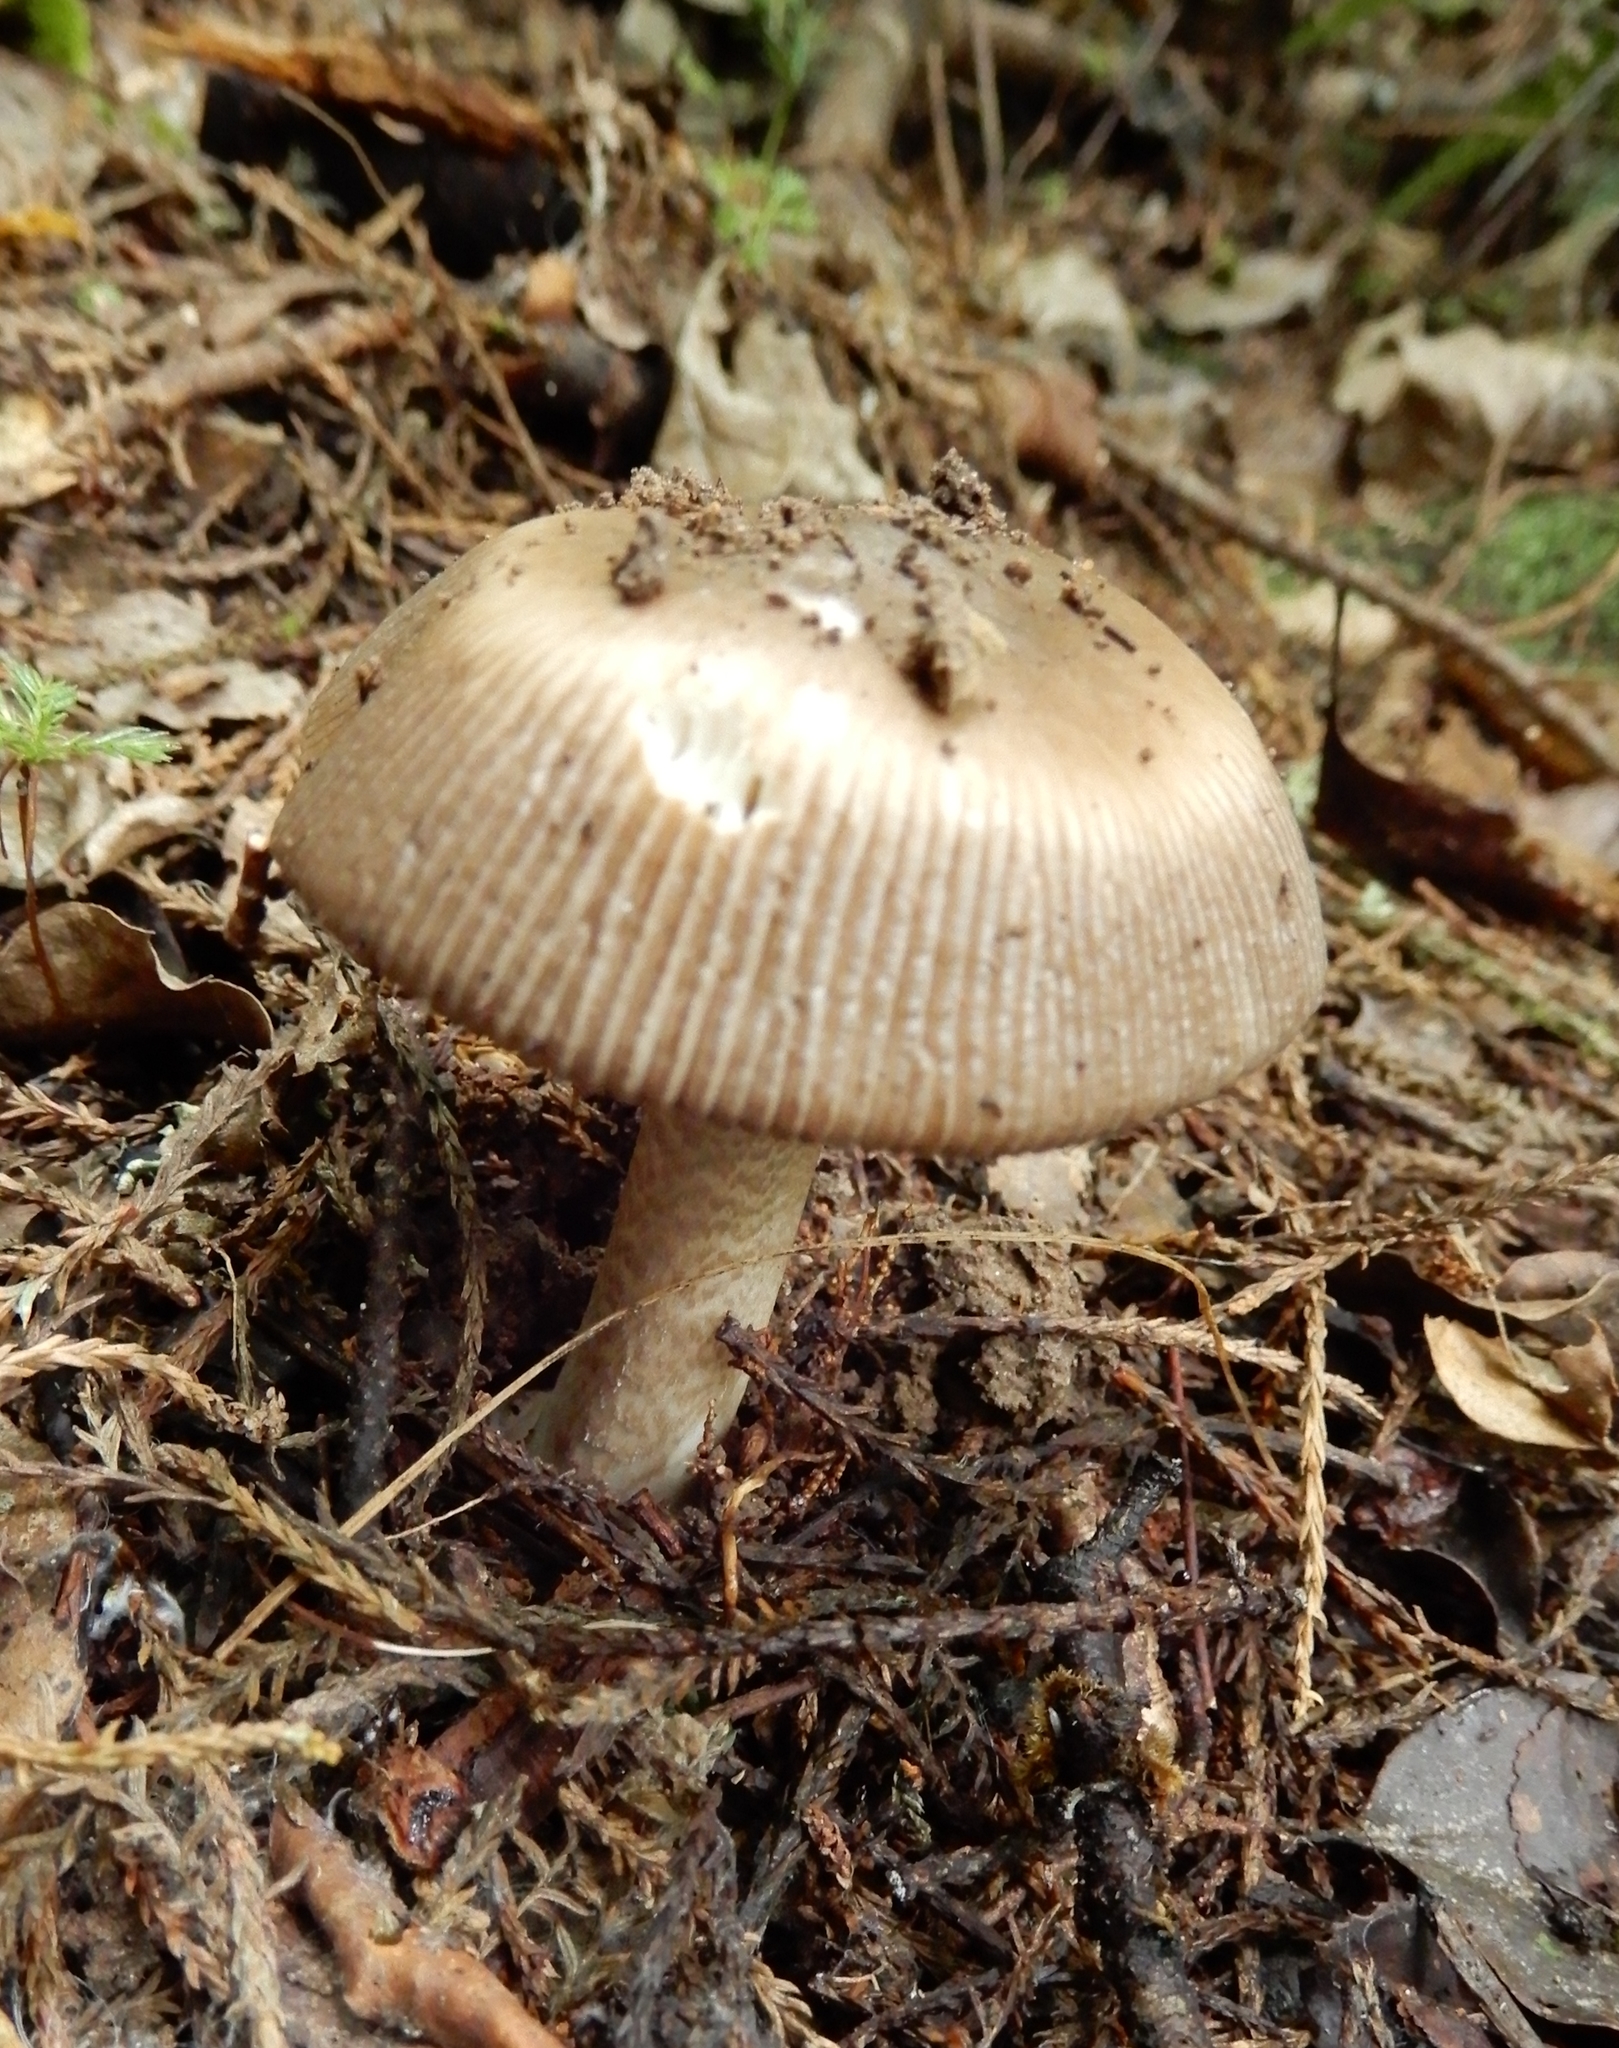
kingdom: Fungi
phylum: Basidiomycota
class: Agaricomycetes
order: Agaricales
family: Amanitaceae
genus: Amanita
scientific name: Amanita pekeoides
